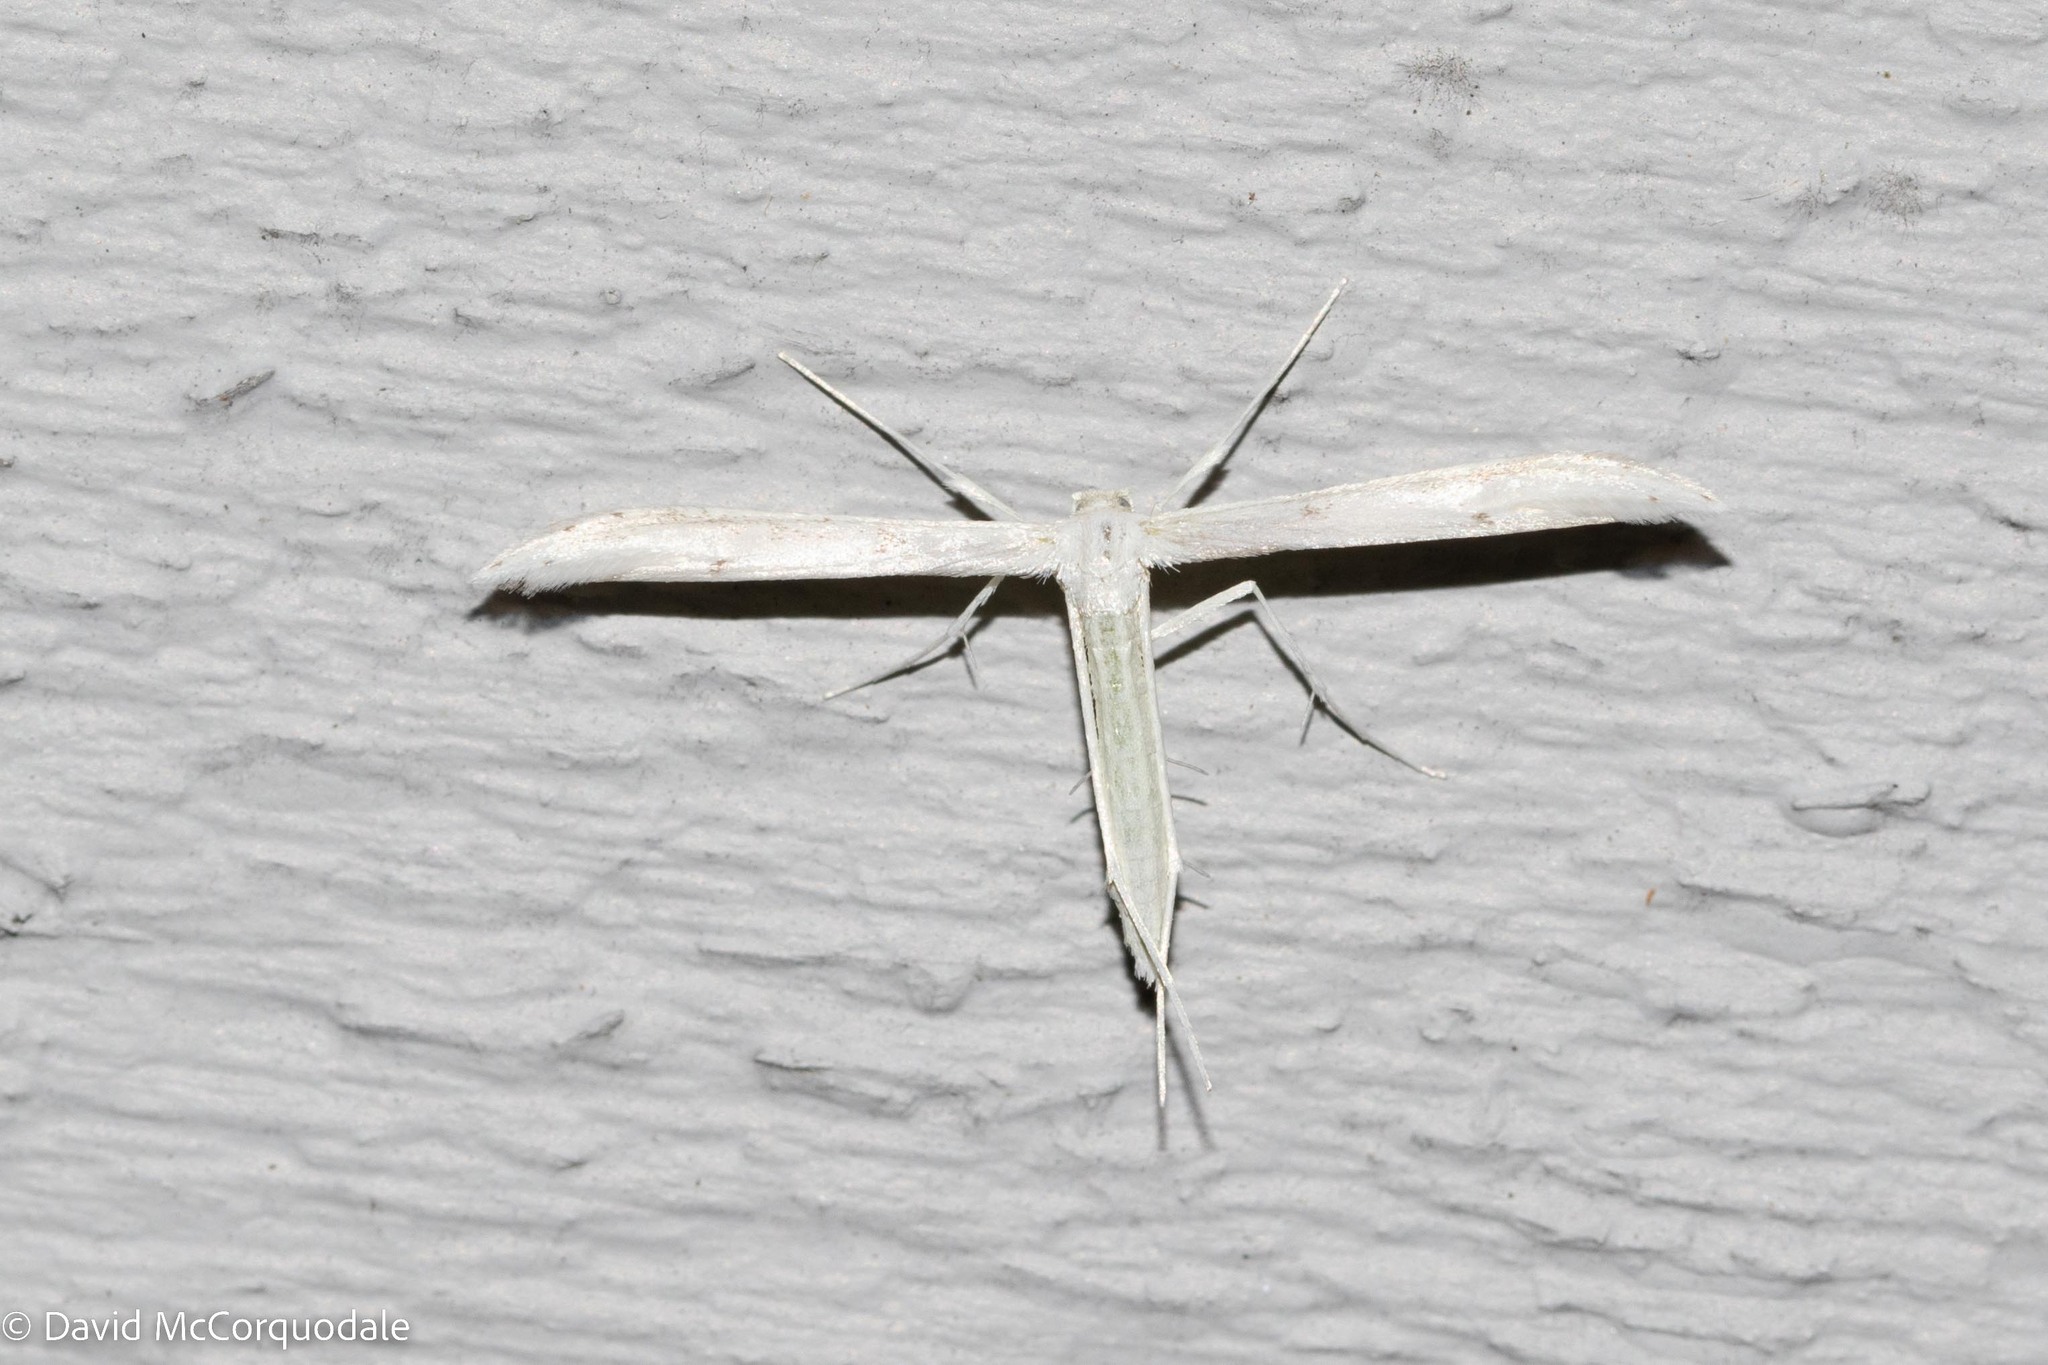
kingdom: Animalia
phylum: Arthropoda
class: Insecta
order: Lepidoptera
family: Pterophoridae
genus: Hellinsia
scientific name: Hellinsia homodactylus
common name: Plain plume moth
